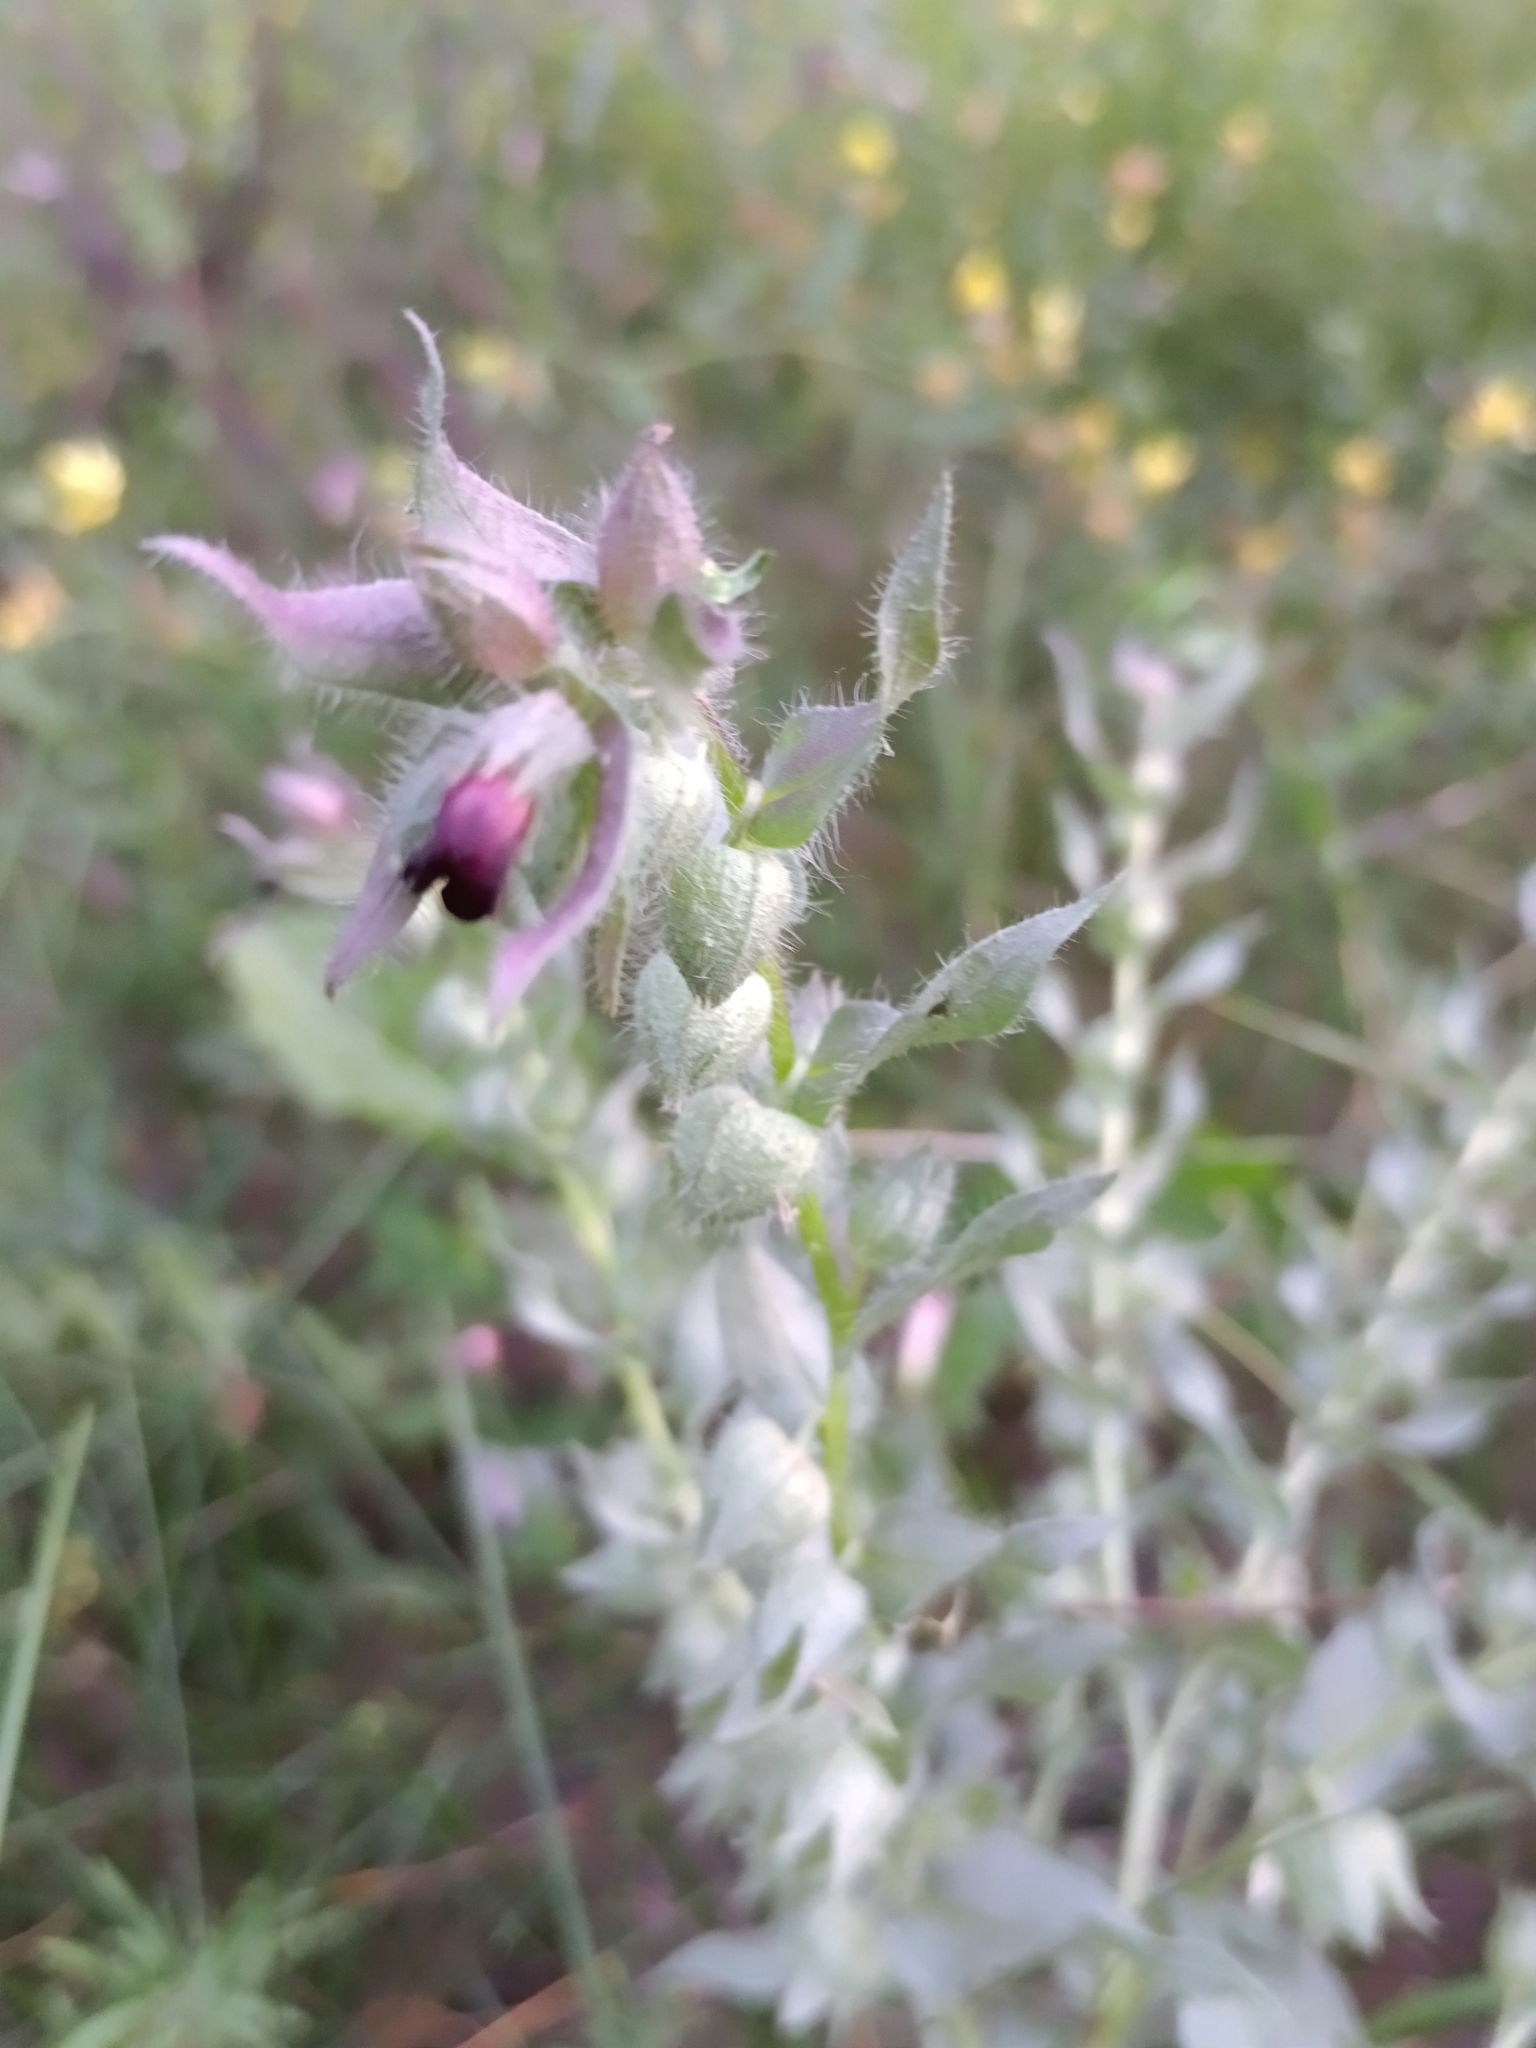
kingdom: Plantae
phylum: Tracheophyta
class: Magnoliopsida
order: Boraginales
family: Boraginaceae
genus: Nonea
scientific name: Nonea pulla
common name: Brown nonea
